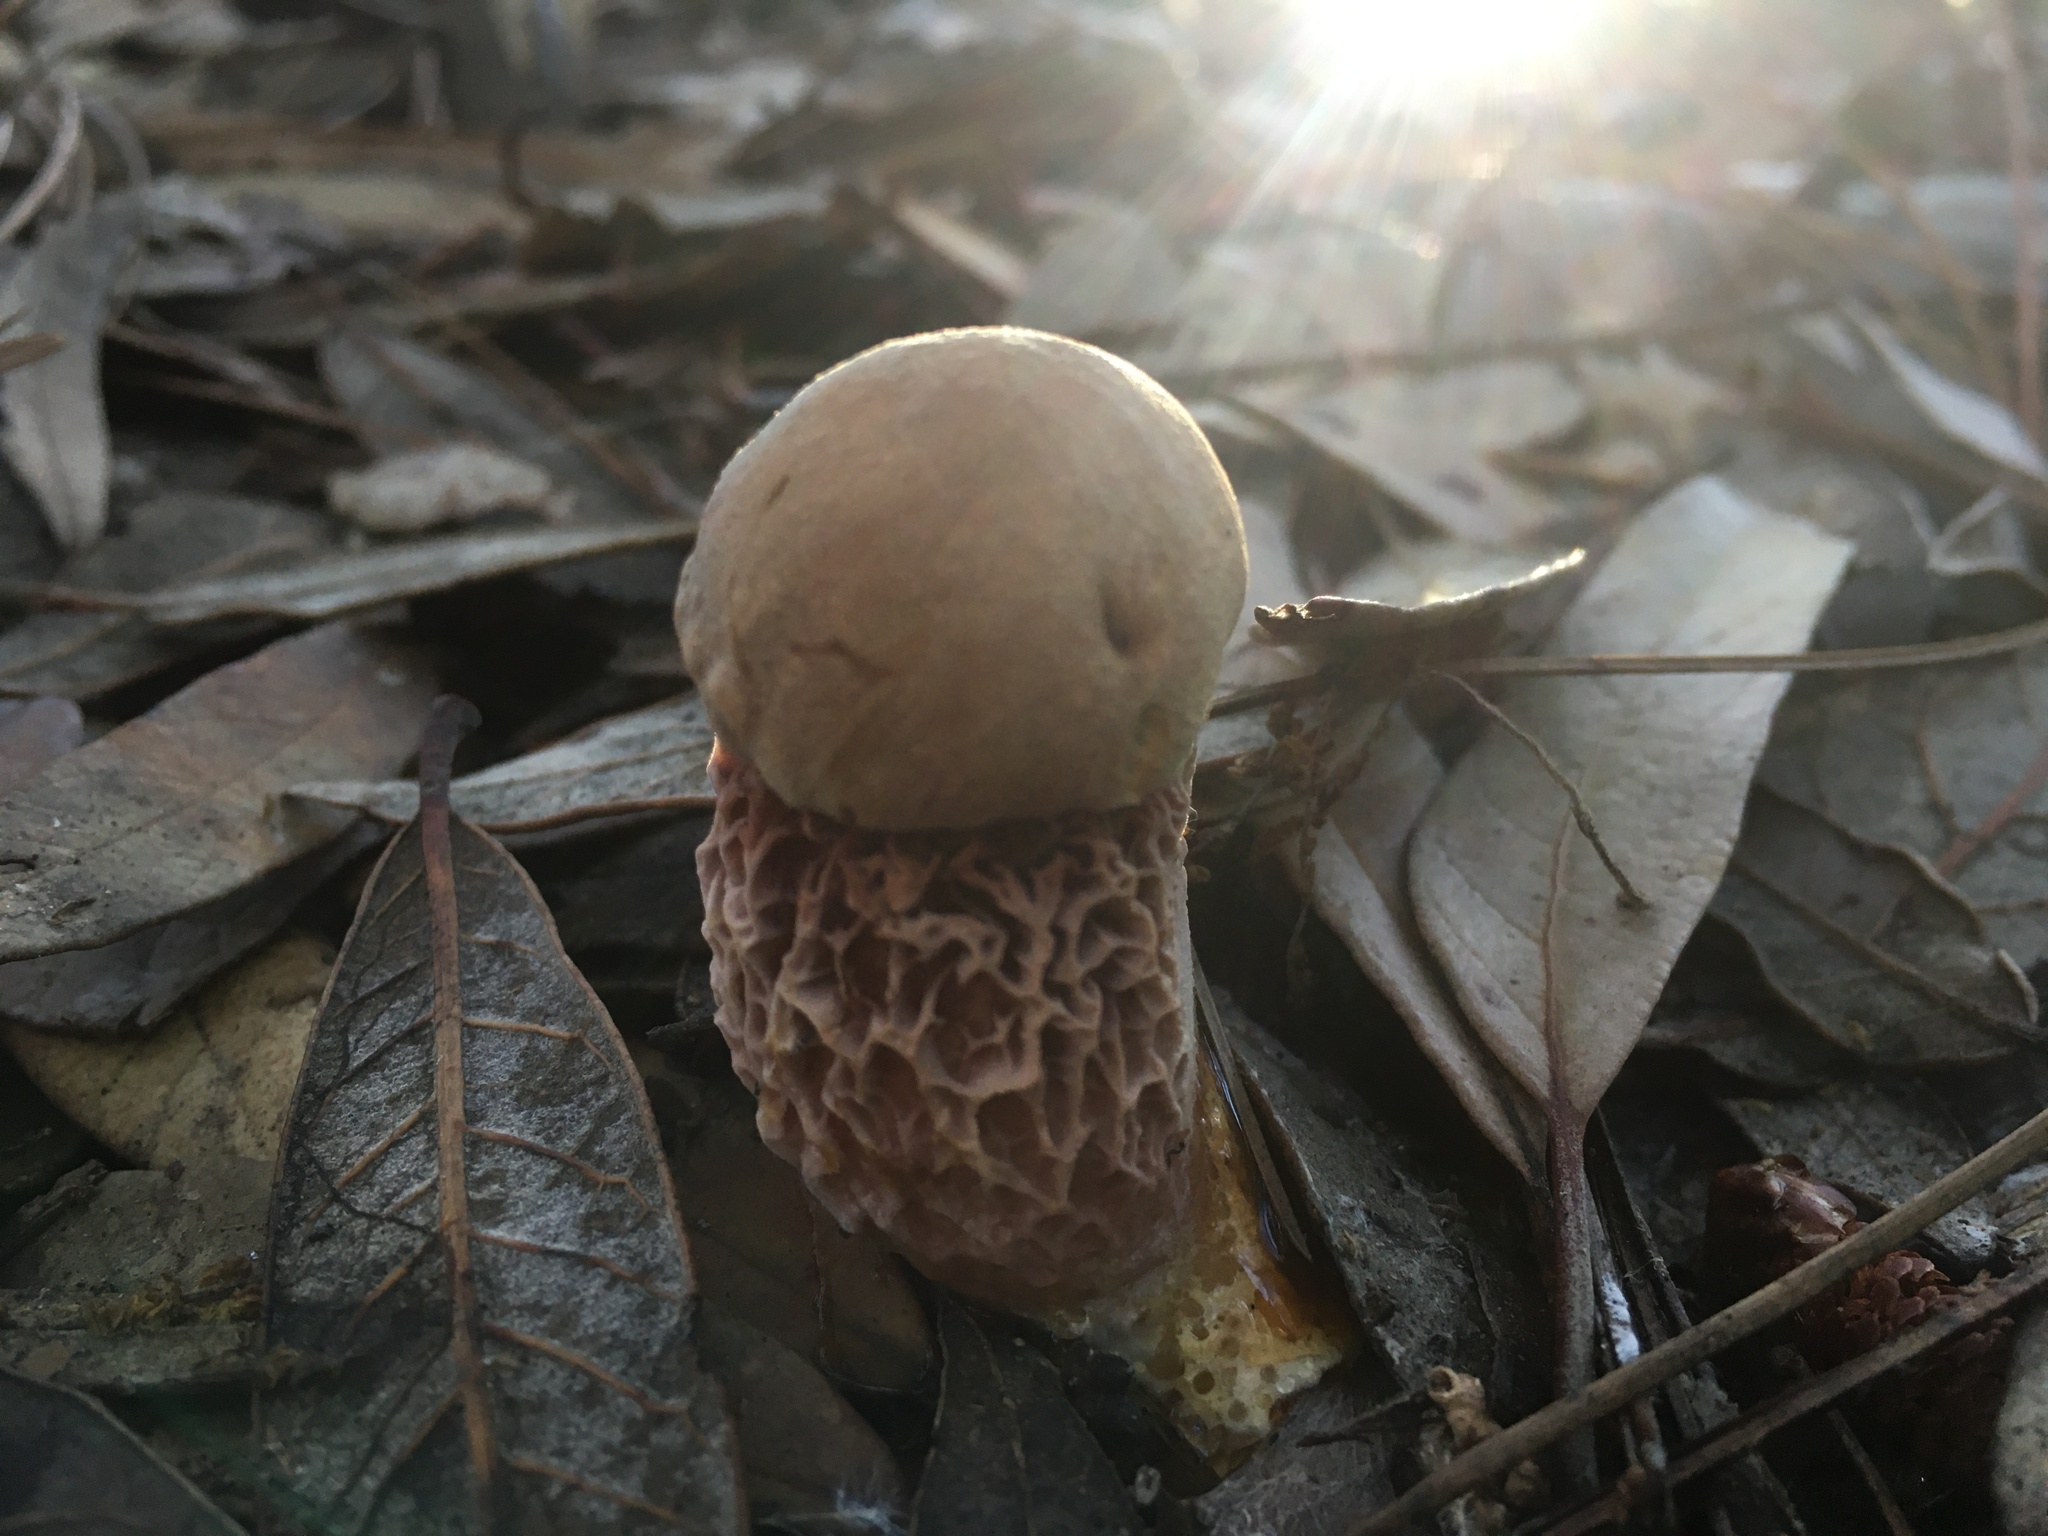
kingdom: Fungi
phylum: Basidiomycota
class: Agaricomycetes
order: Boletales
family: Boletaceae
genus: Aureoboletus
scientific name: Aureoboletus russellii
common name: Russell's bolete
